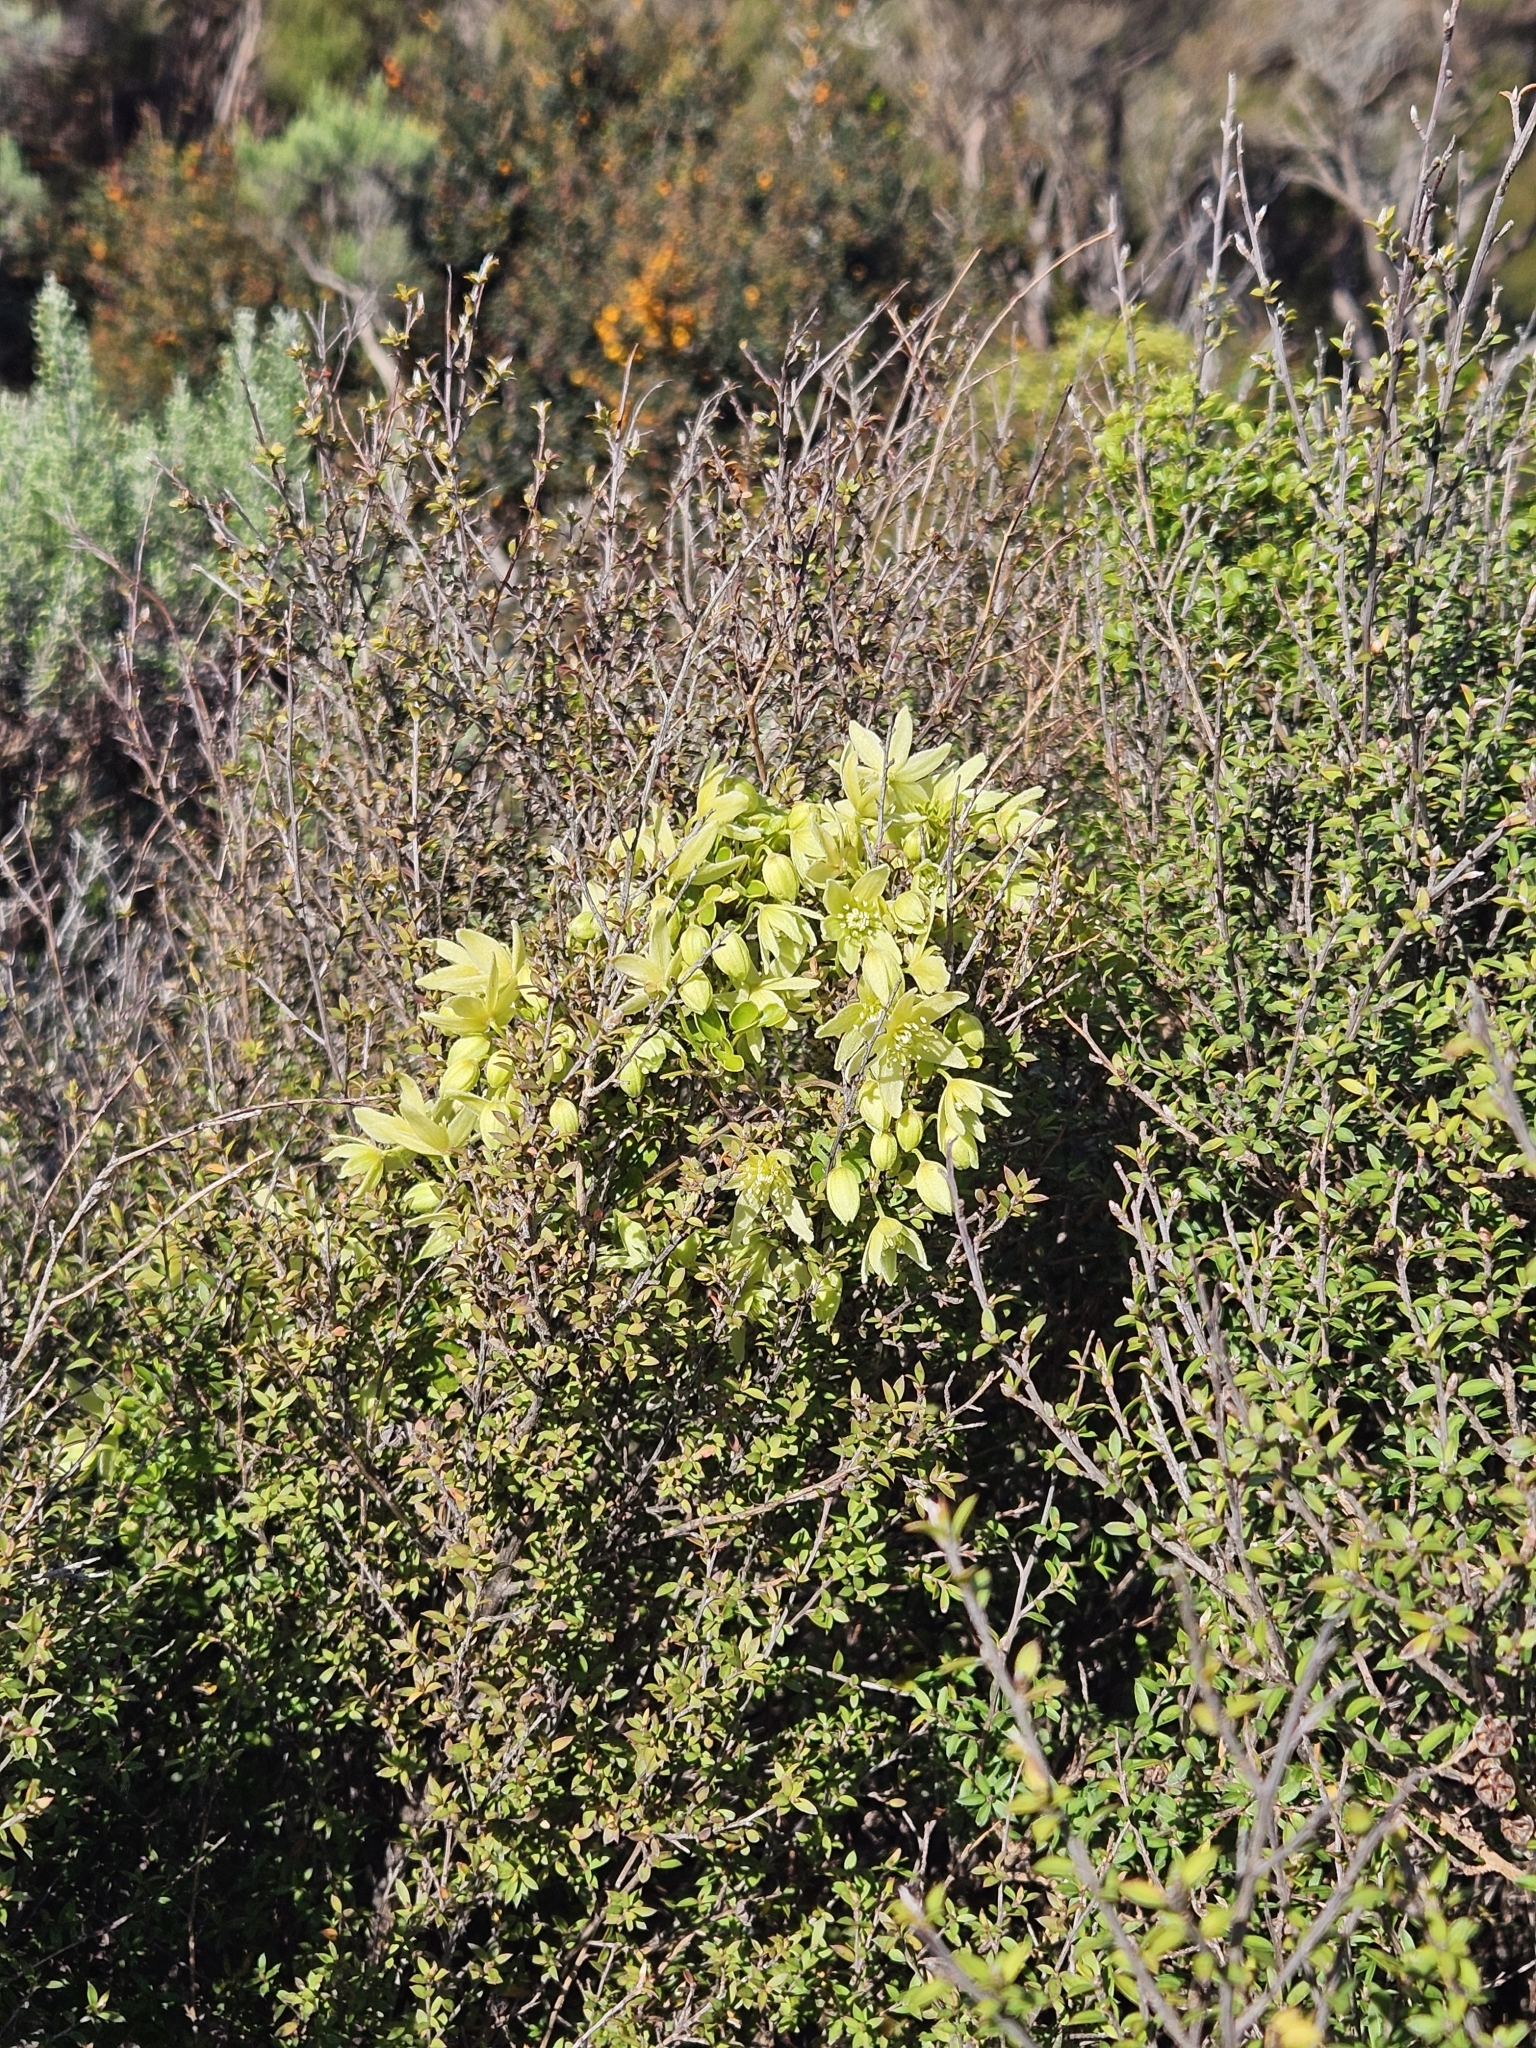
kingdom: Plantae
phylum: Tracheophyta
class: Magnoliopsida
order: Ranunculales
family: Ranunculaceae
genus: Clematis
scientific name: Clematis foetida
